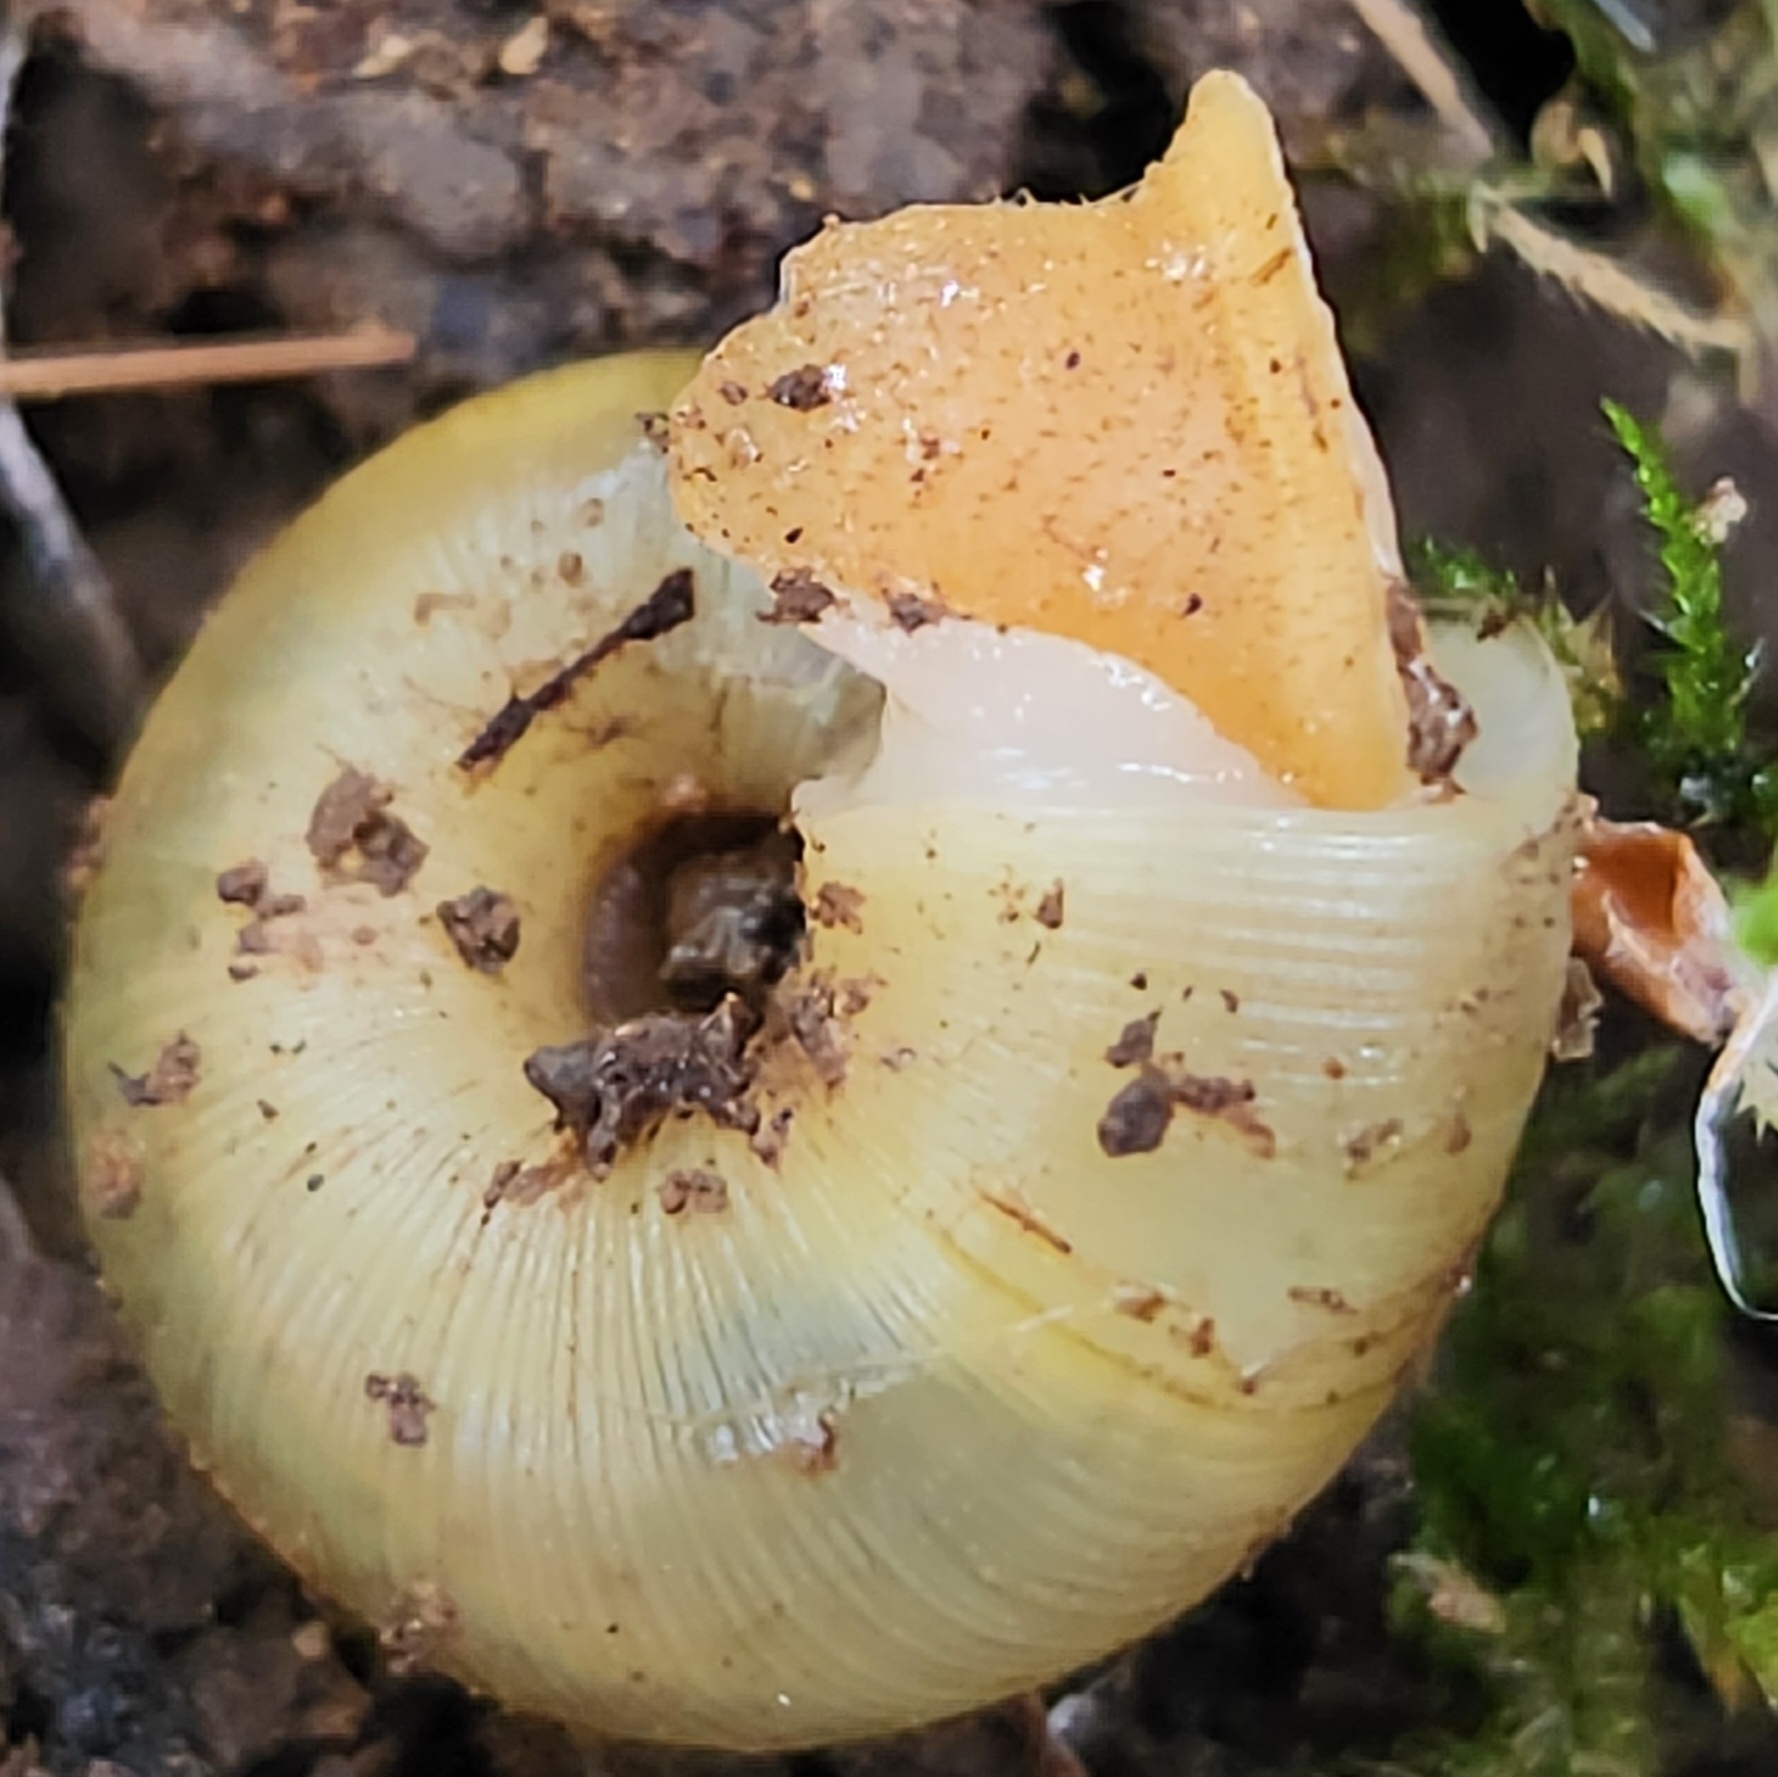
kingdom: Animalia
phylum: Mollusca
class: Gastropoda
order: Stylommatophora
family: Polygyridae
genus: Vespericola
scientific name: Vespericola columbianus
